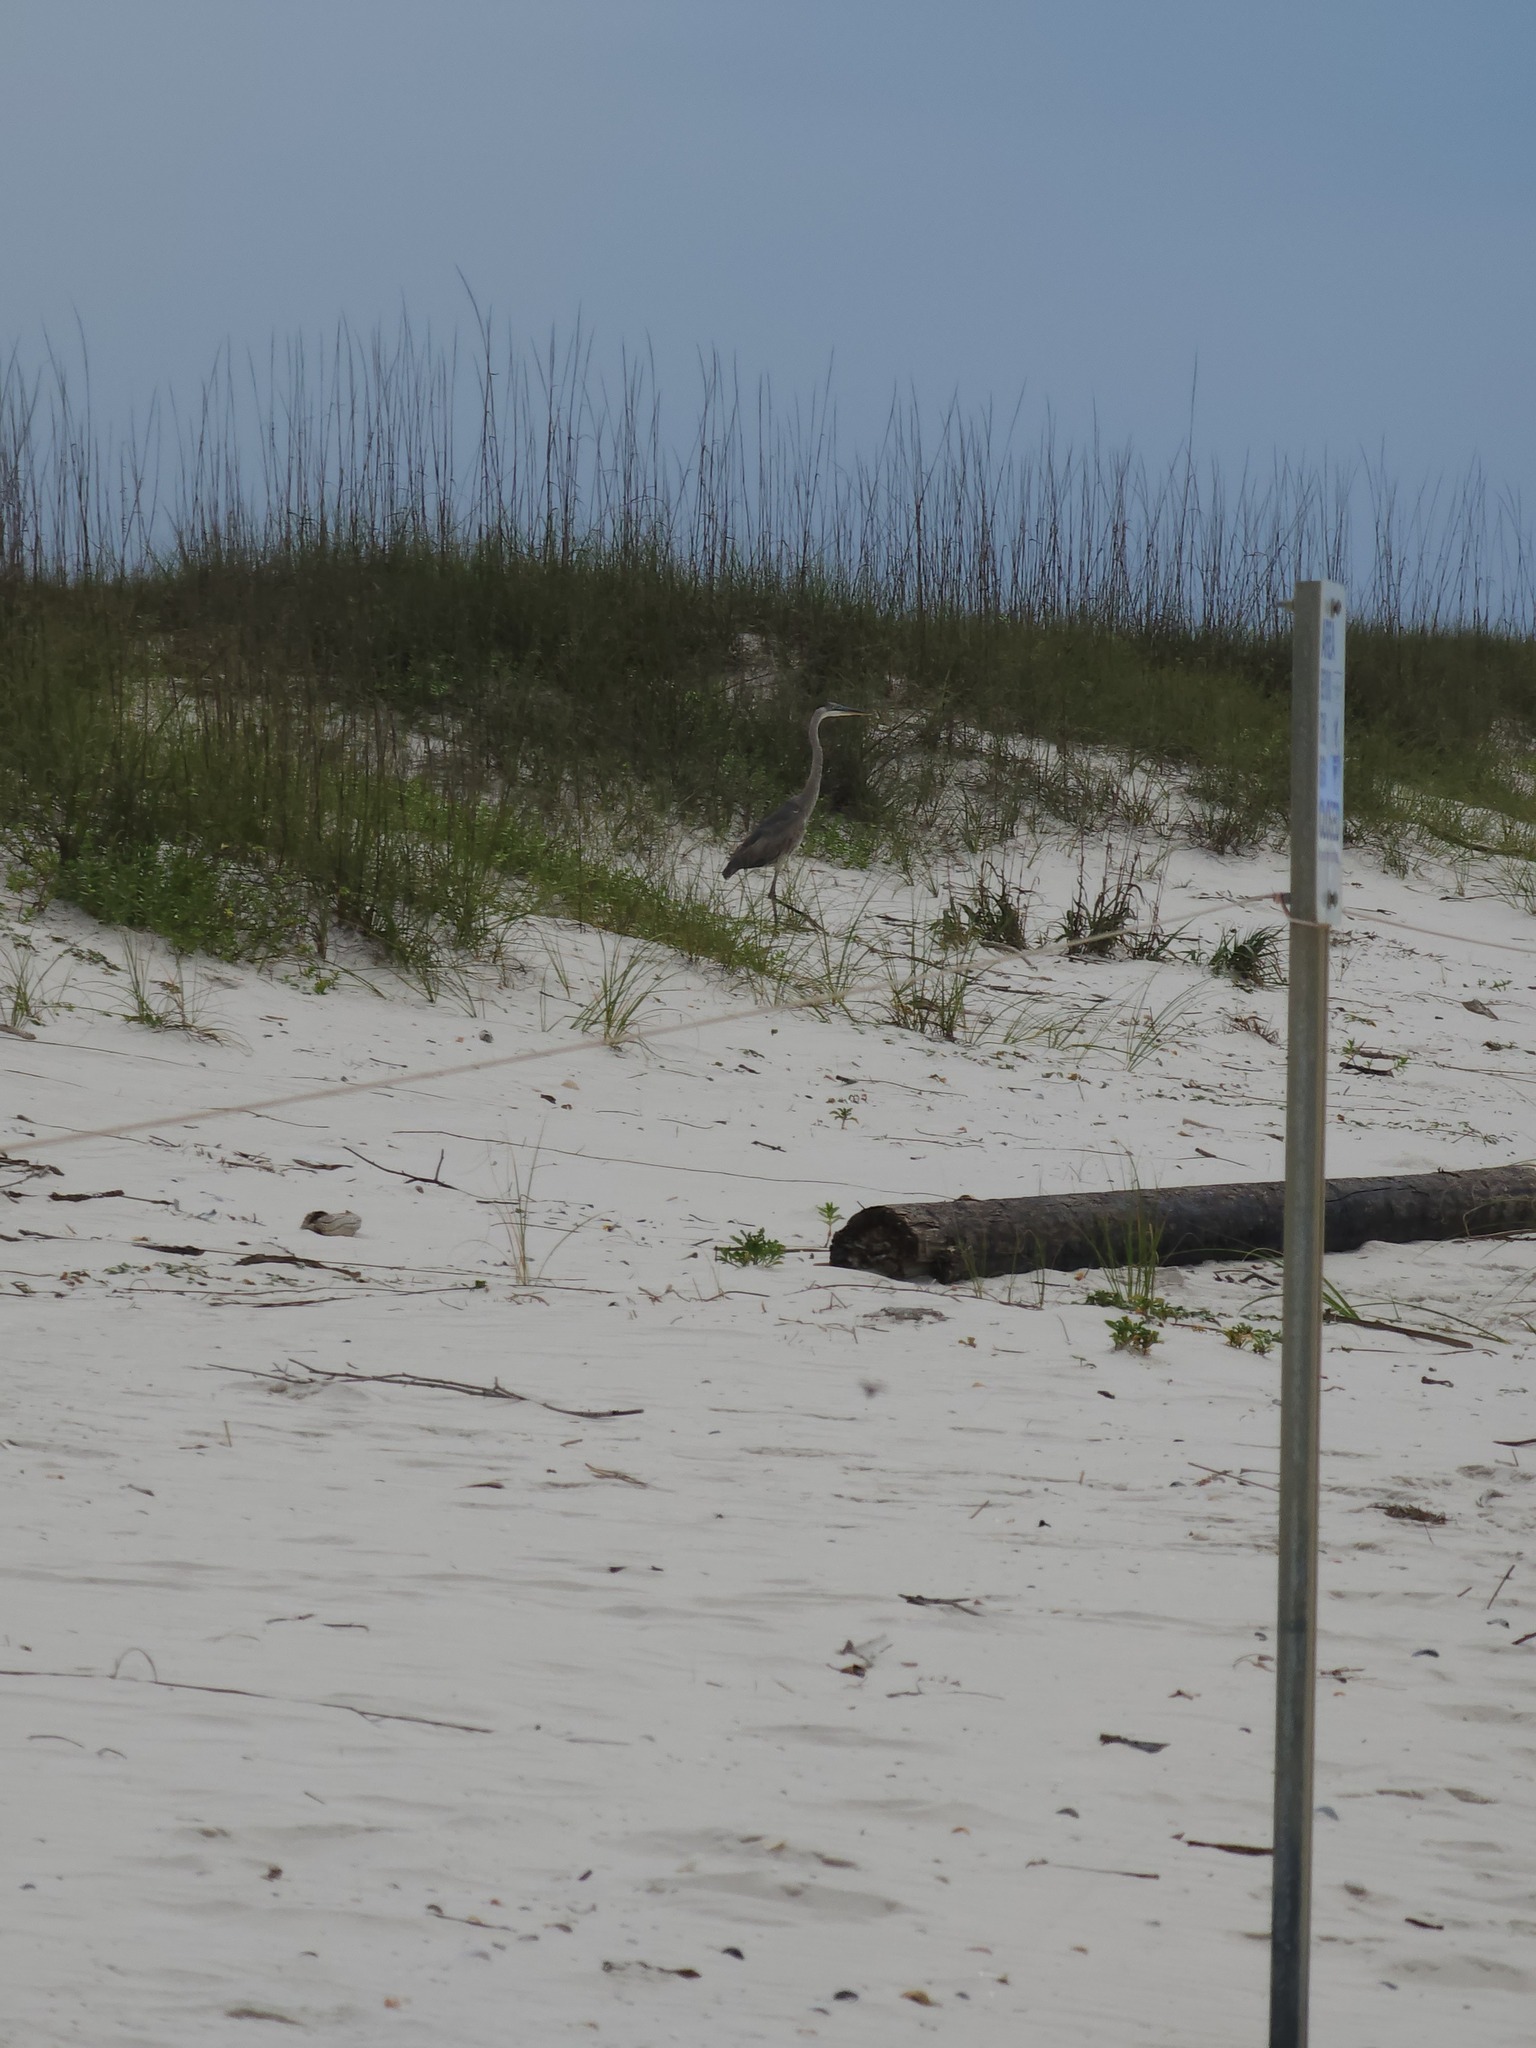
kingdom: Animalia
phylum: Chordata
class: Aves
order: Pelecaniformes
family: Ardeidae
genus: Ardea
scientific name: Ardea herodias
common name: Great blue heron
